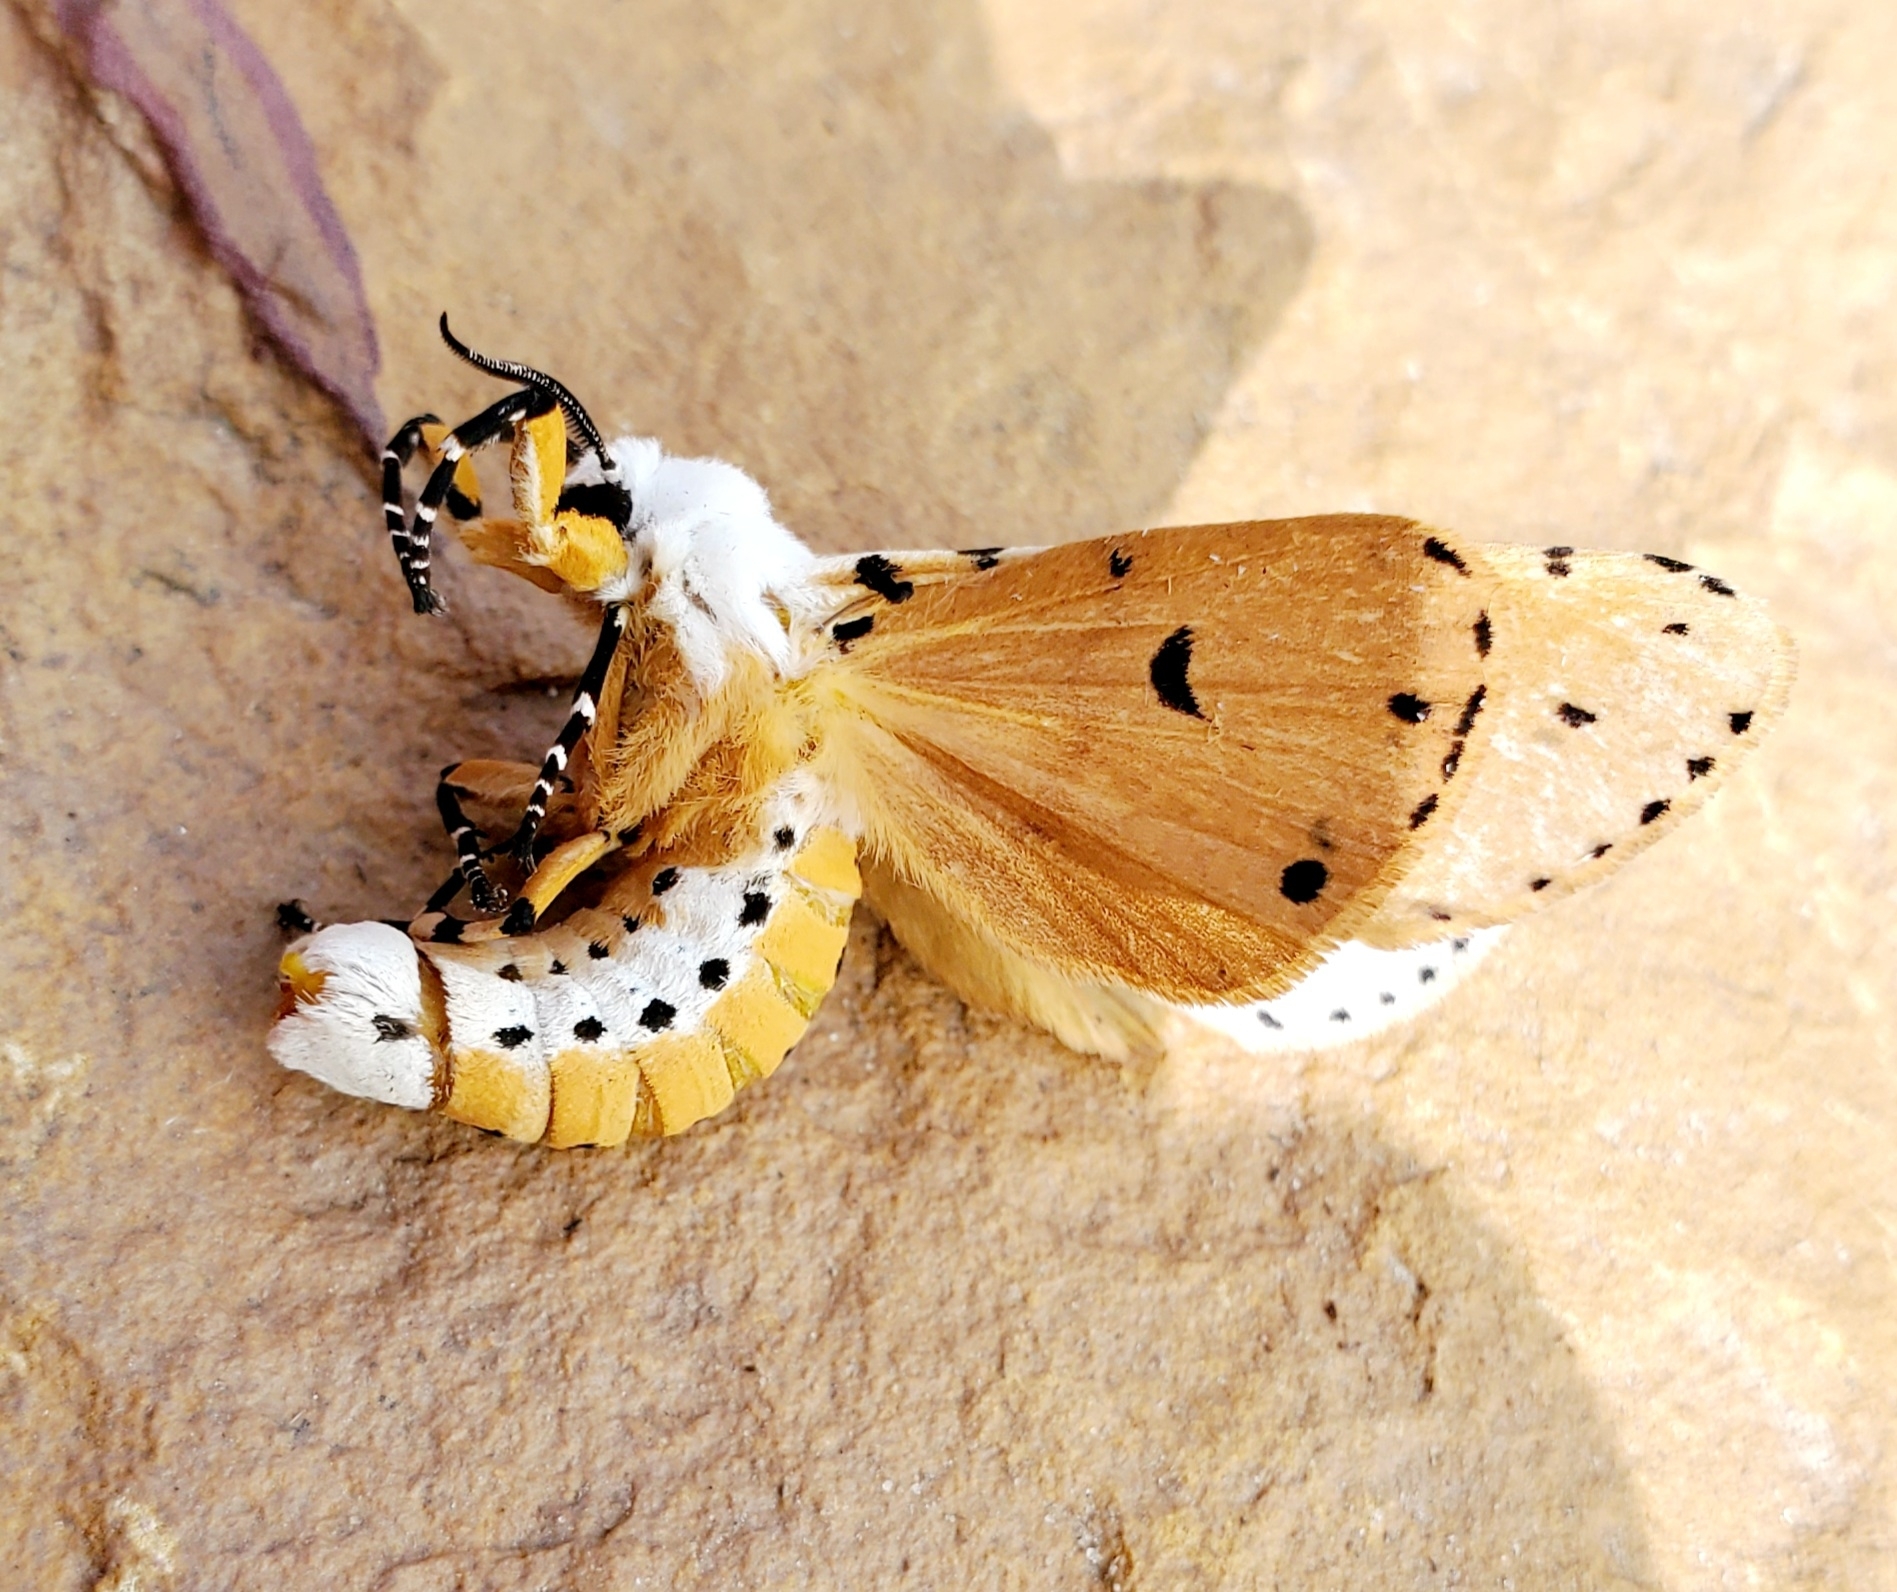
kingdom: Animalia
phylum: Arthropoda
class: Insecta
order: Lepidoptera
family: Erebidae
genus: Estigmene
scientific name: Estigmene acrea
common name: Salt marsh moth
